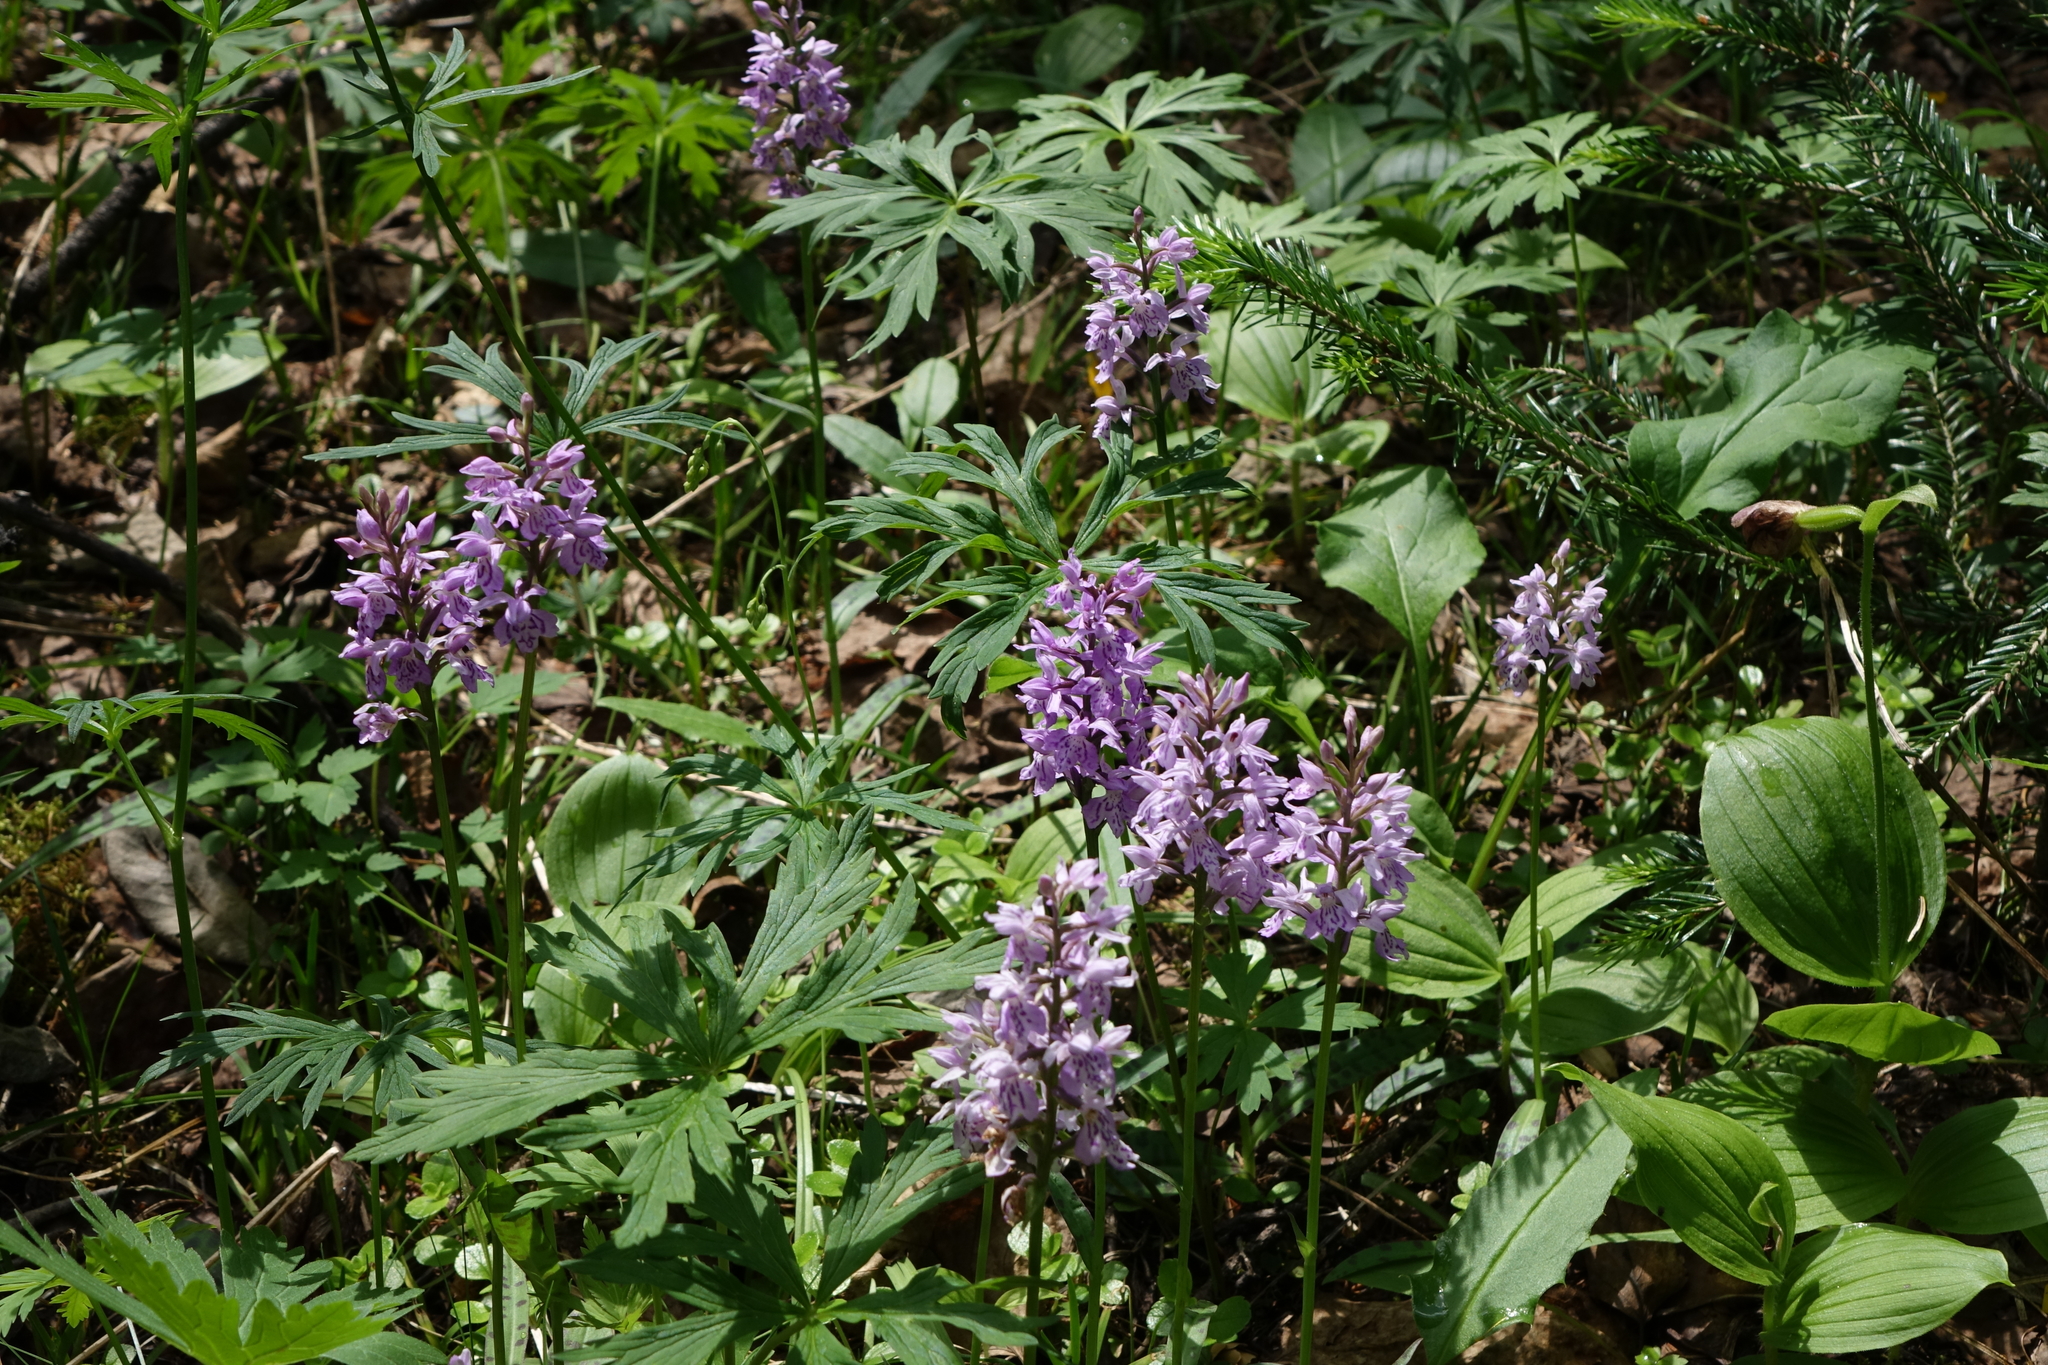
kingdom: Plantae
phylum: Tracheophyta
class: Liliopsida
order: Asparagales
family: Orchidaceae
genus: Dactylorhiza
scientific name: Dactylorhiza maculata
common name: Heath spotted-orchid
